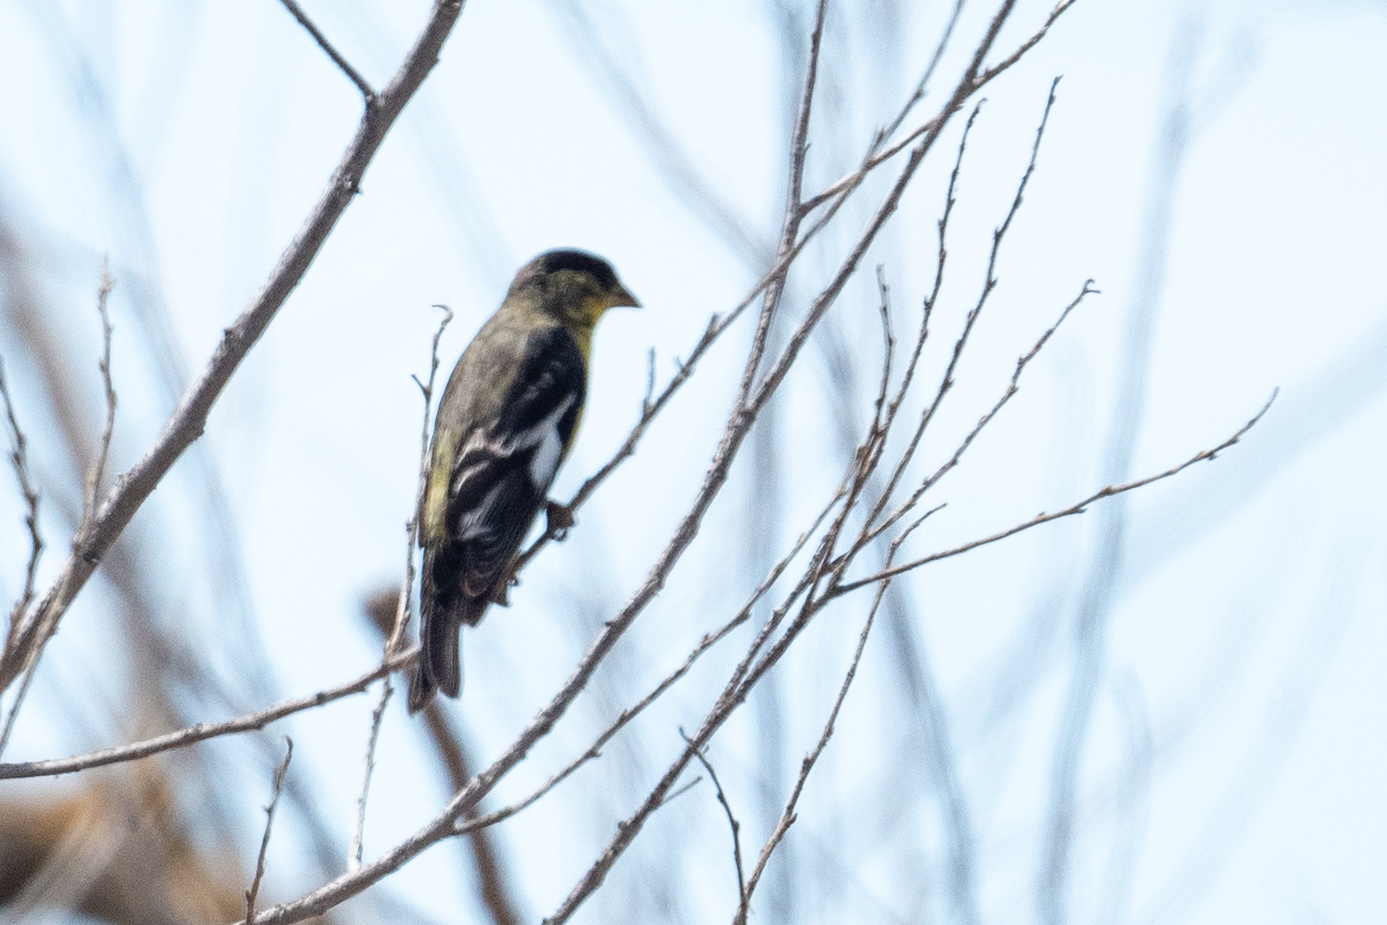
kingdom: Animalia
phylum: Chordata
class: Aves
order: Passeriformes
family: Fringillidae
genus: Spinus
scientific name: Spinus psaltria
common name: Lesser goldfinch
